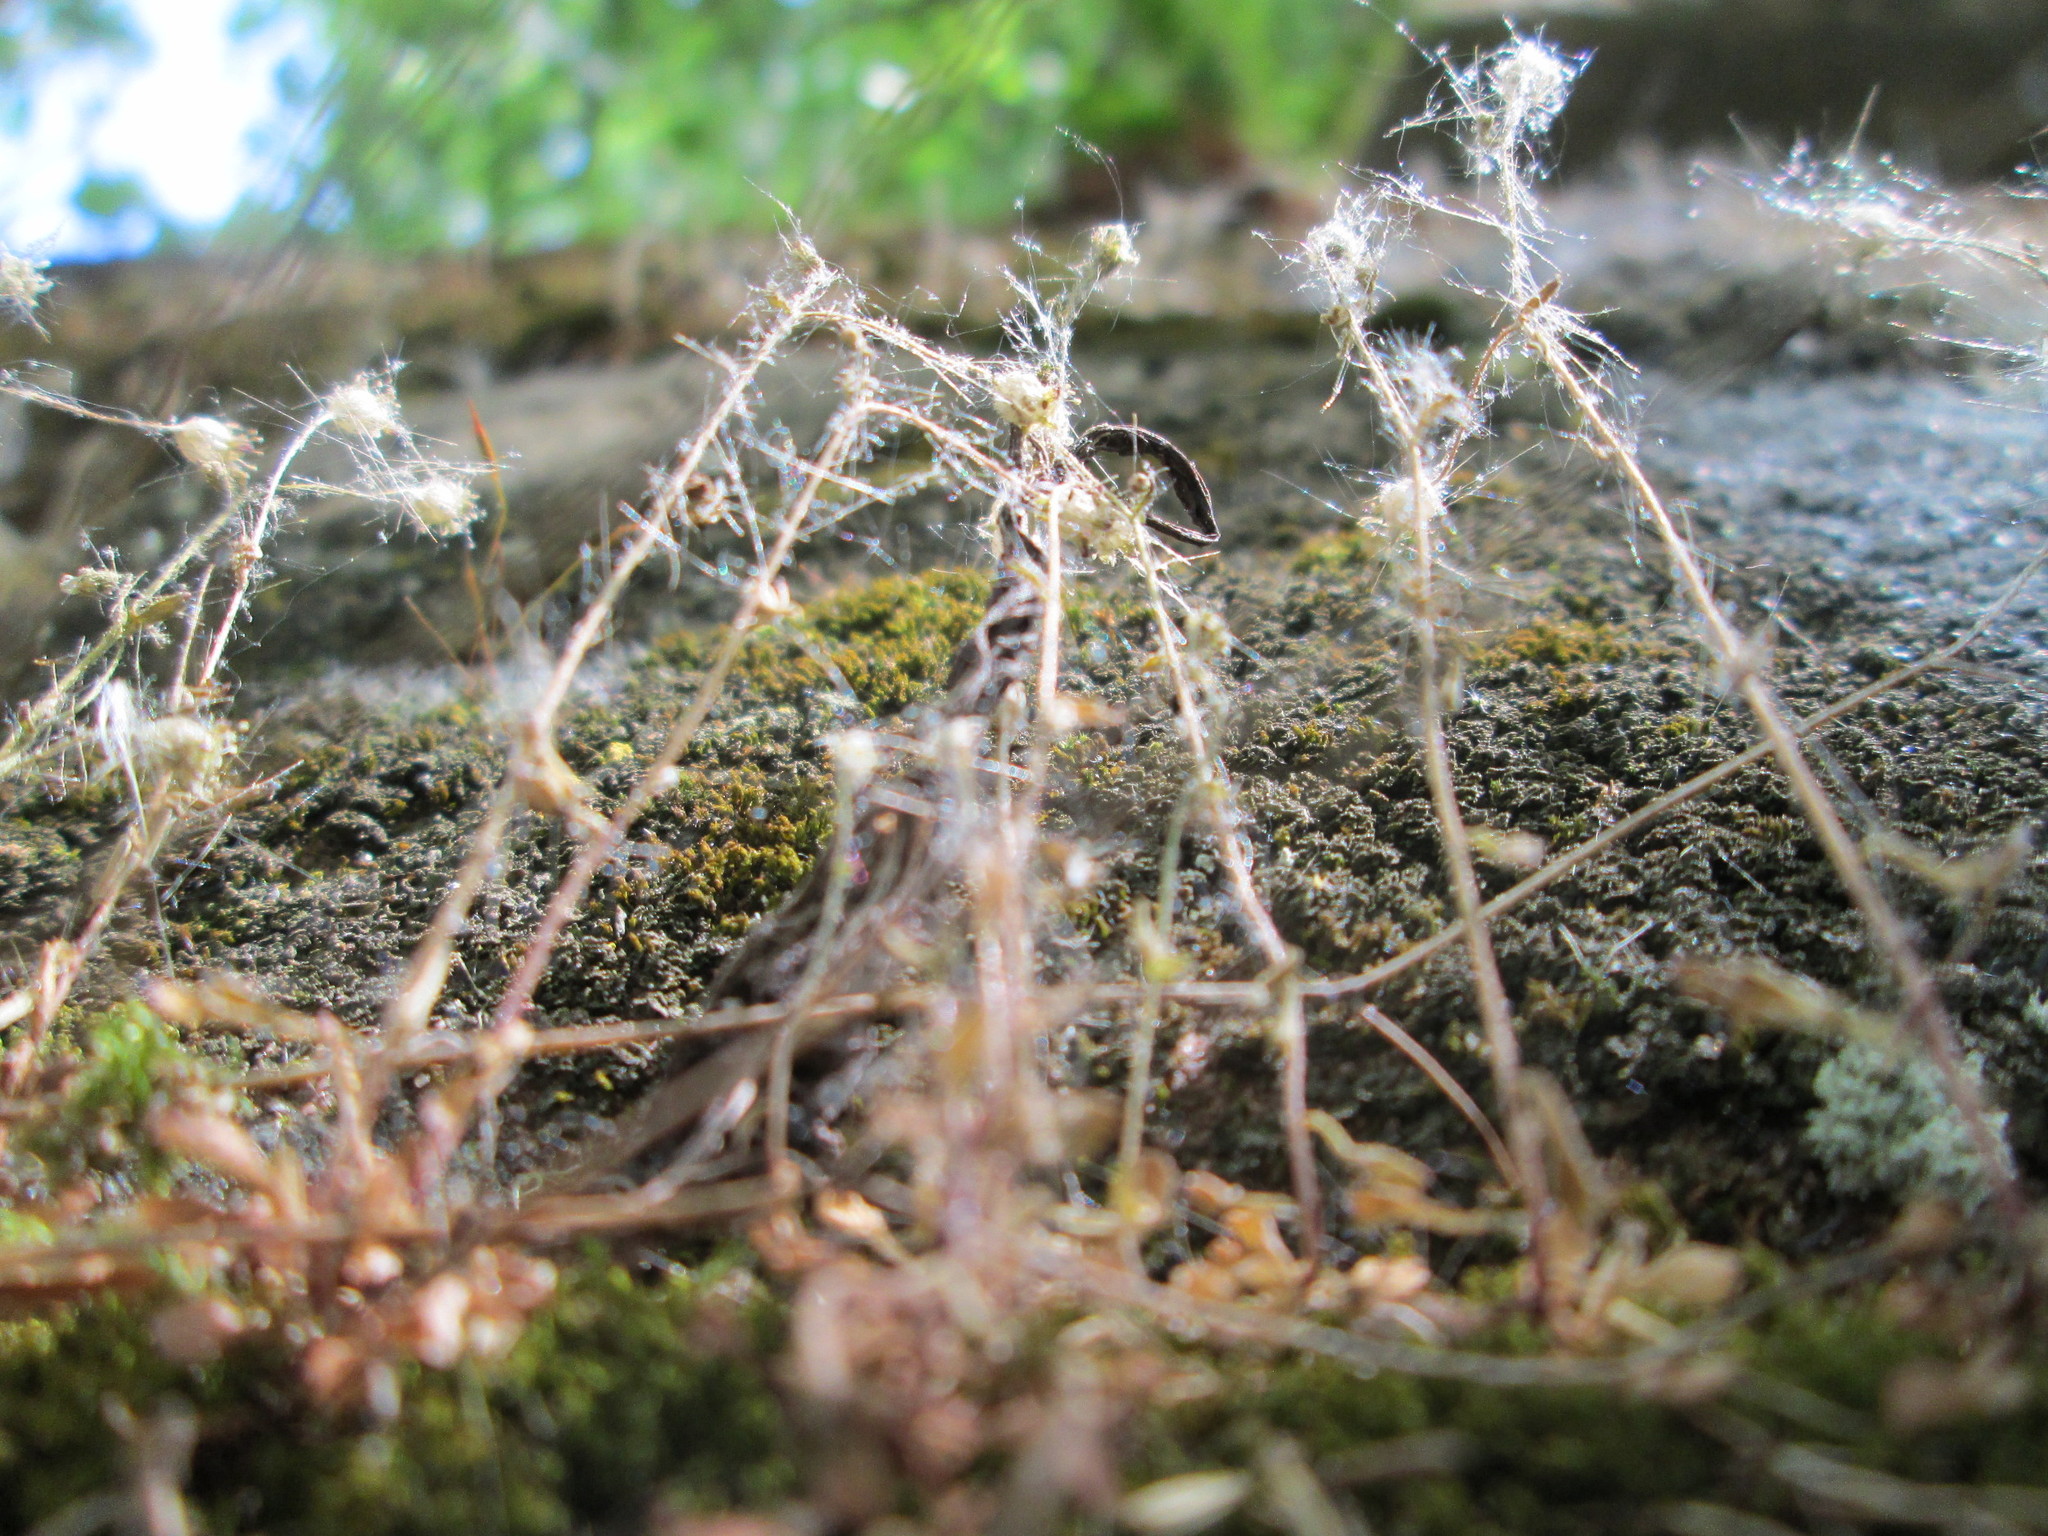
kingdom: Plantae
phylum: Tracheophyta
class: Magnoliopsida
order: Saxifragales
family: Saxifragaceae
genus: Saxifraga
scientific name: Saxifraga tridactylites
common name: Rue-leaved saxifrage
